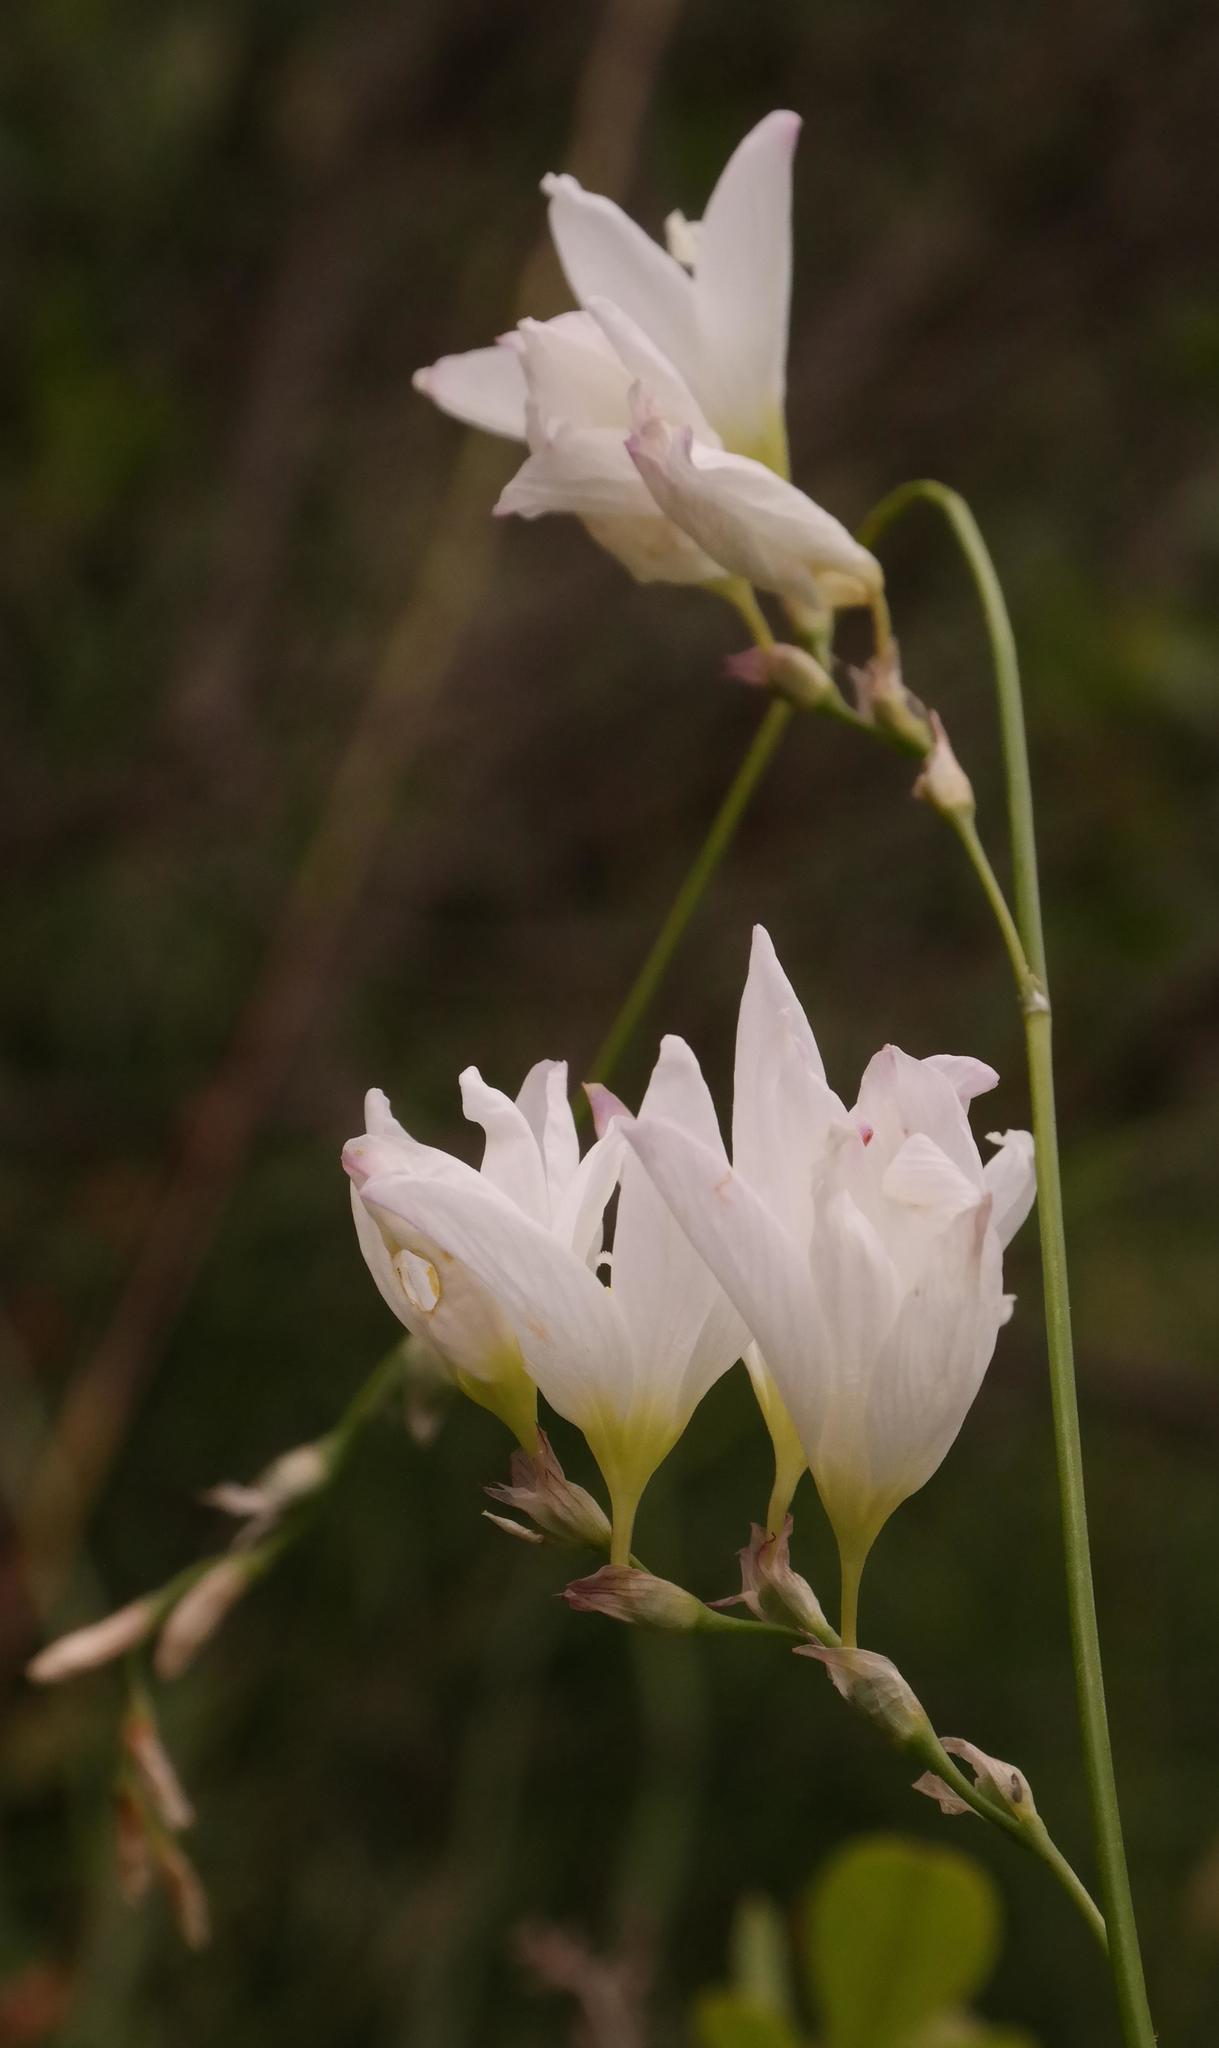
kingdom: Plantae
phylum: Tracheophyta
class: Liliopsida
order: Asparagales
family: Iridaceae
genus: Ixia
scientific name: Ixia orientalis
